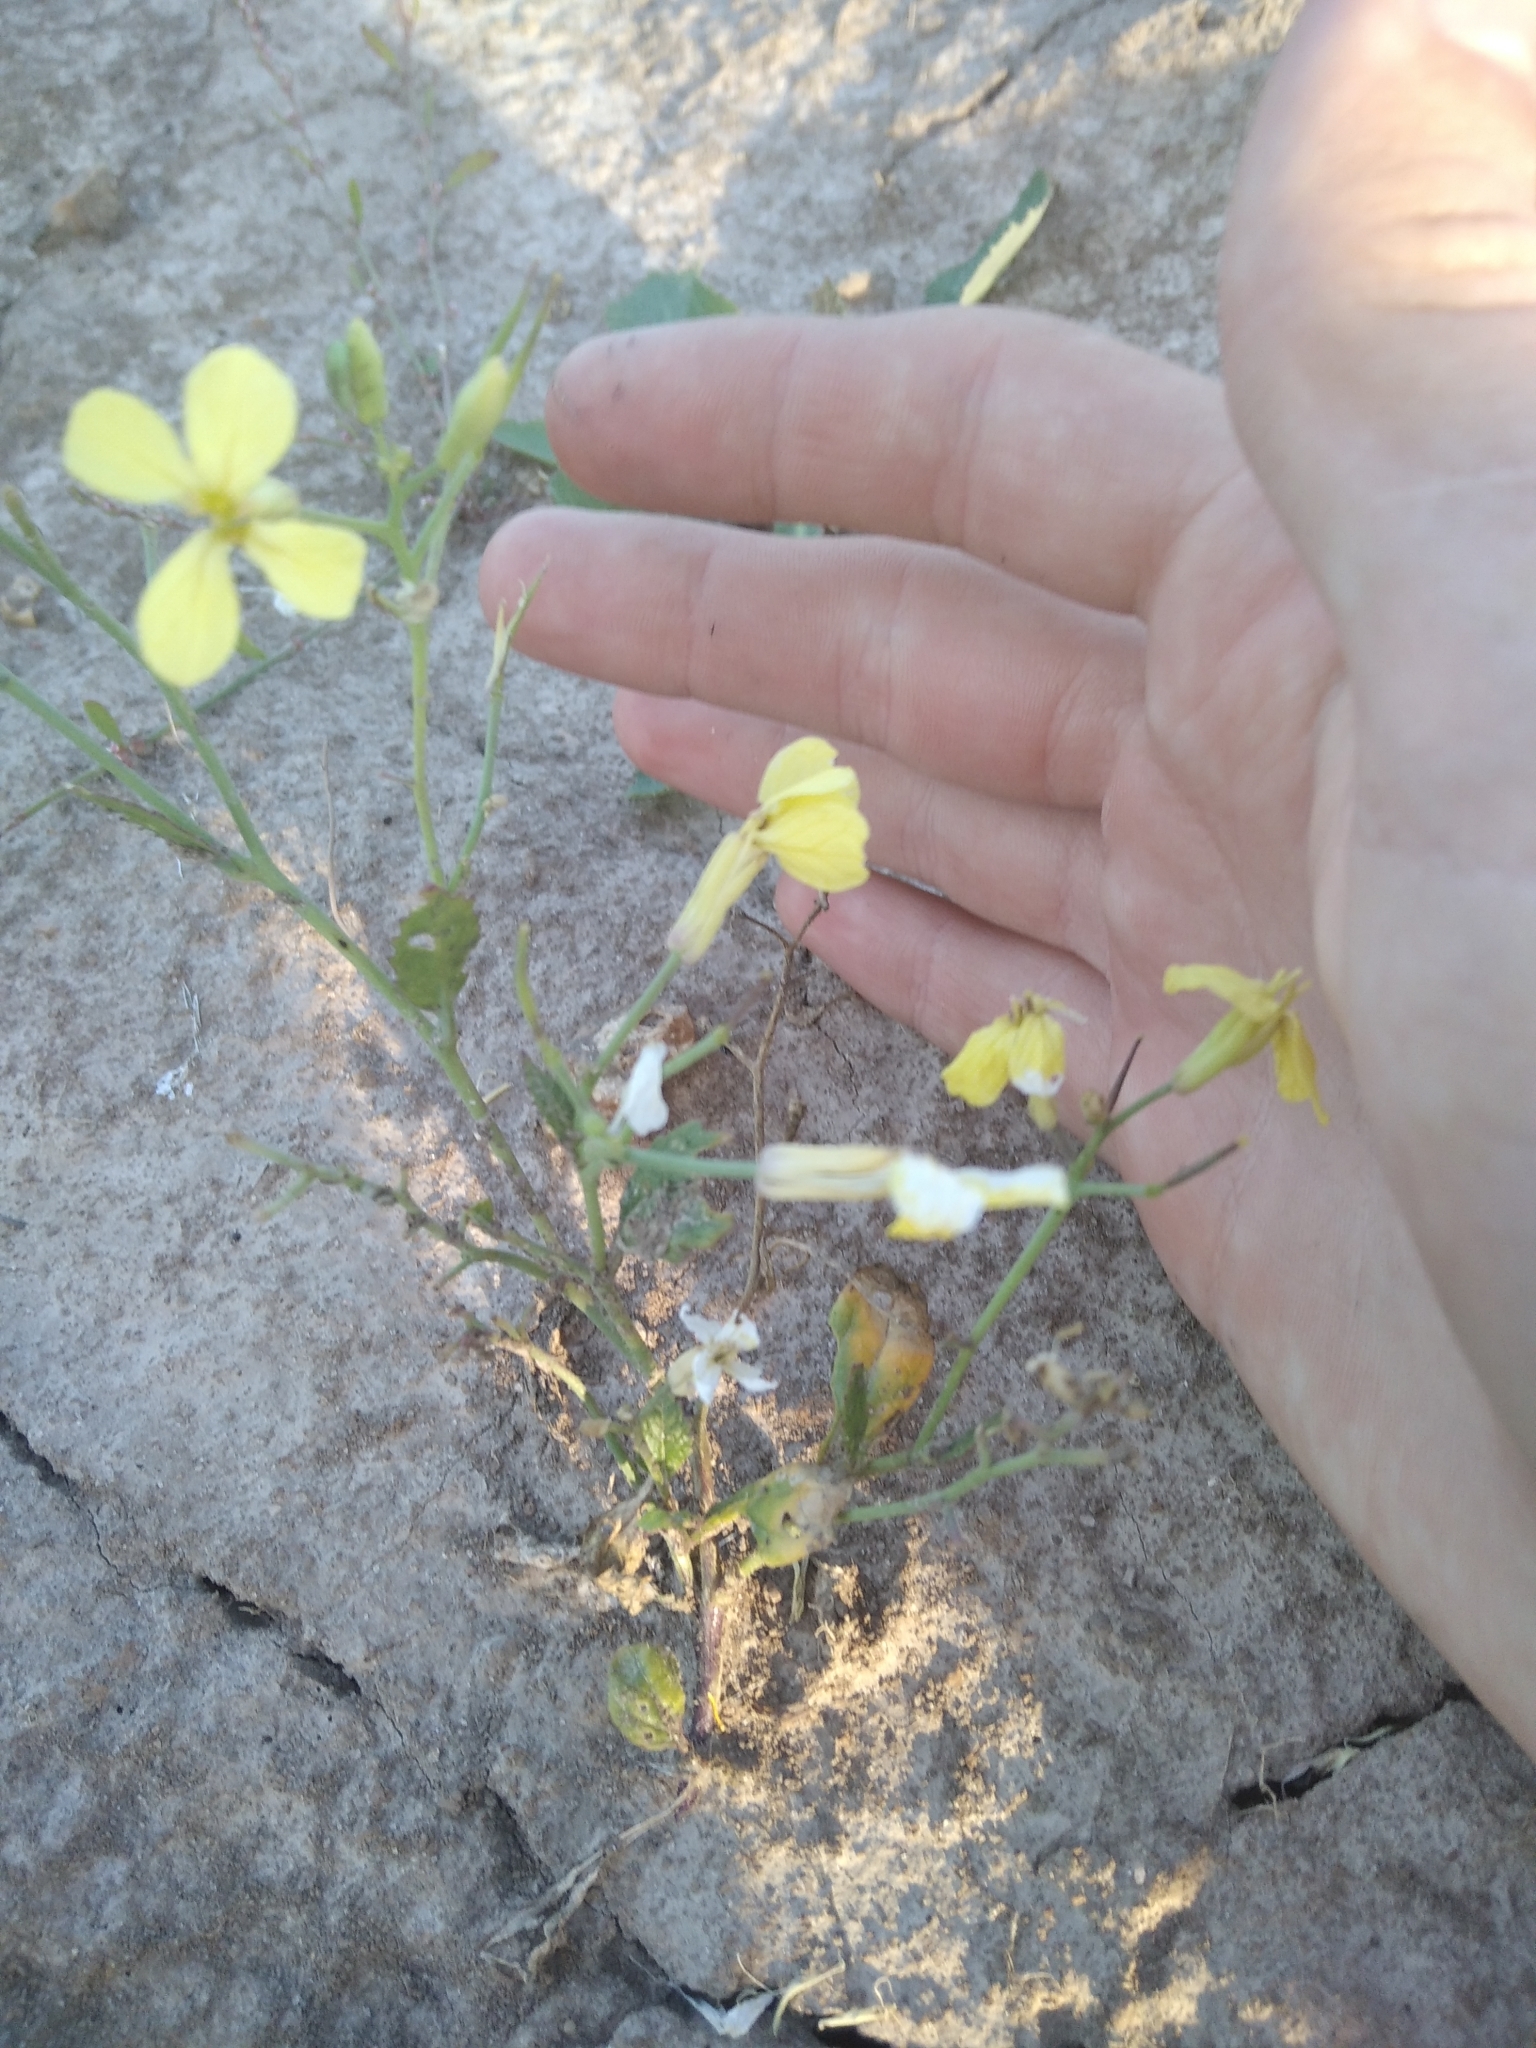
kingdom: Plantae
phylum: Tracheophyta
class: Magnoliopsida
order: Brassicales
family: Brassicaceae
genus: Raphanus
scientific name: Raphanus raphanistrum
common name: Wild radish
